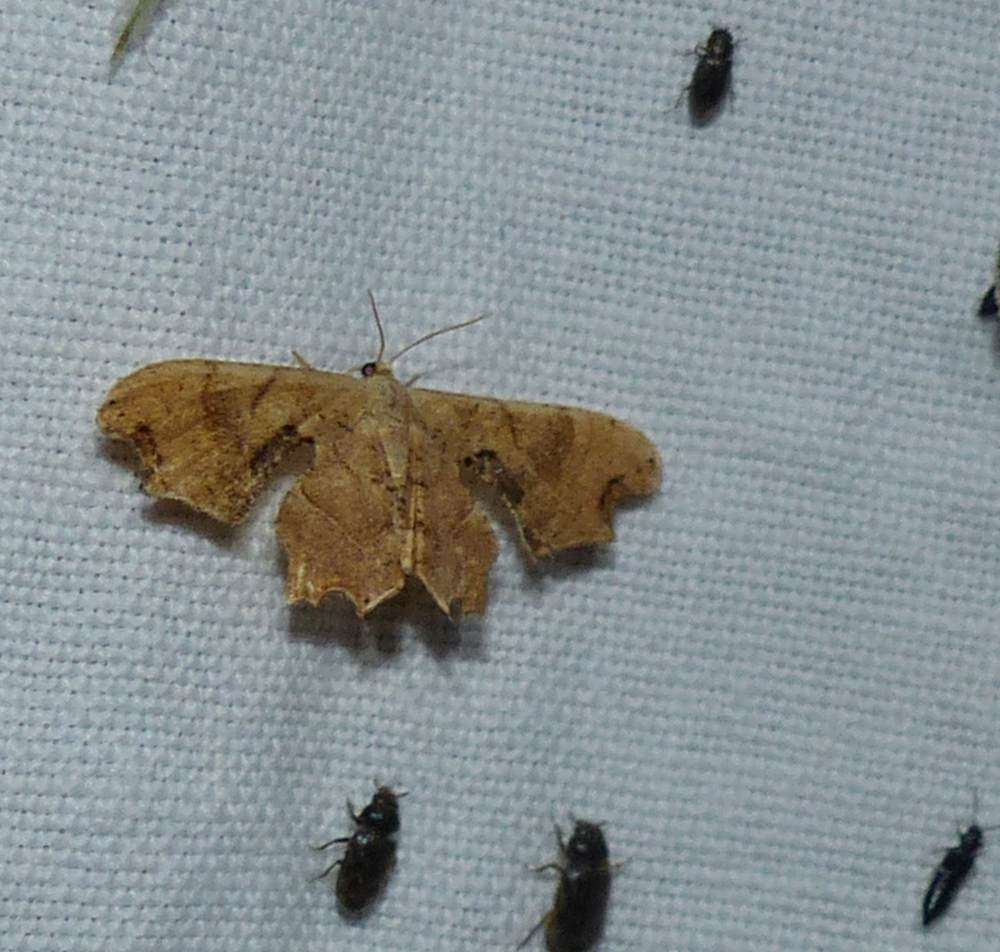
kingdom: Animalia
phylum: Arthropoda
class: Insecta
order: Lepidoptera
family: Uraniidae
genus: Epiplema
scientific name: Epiplema Calledapteryx dryopterata
